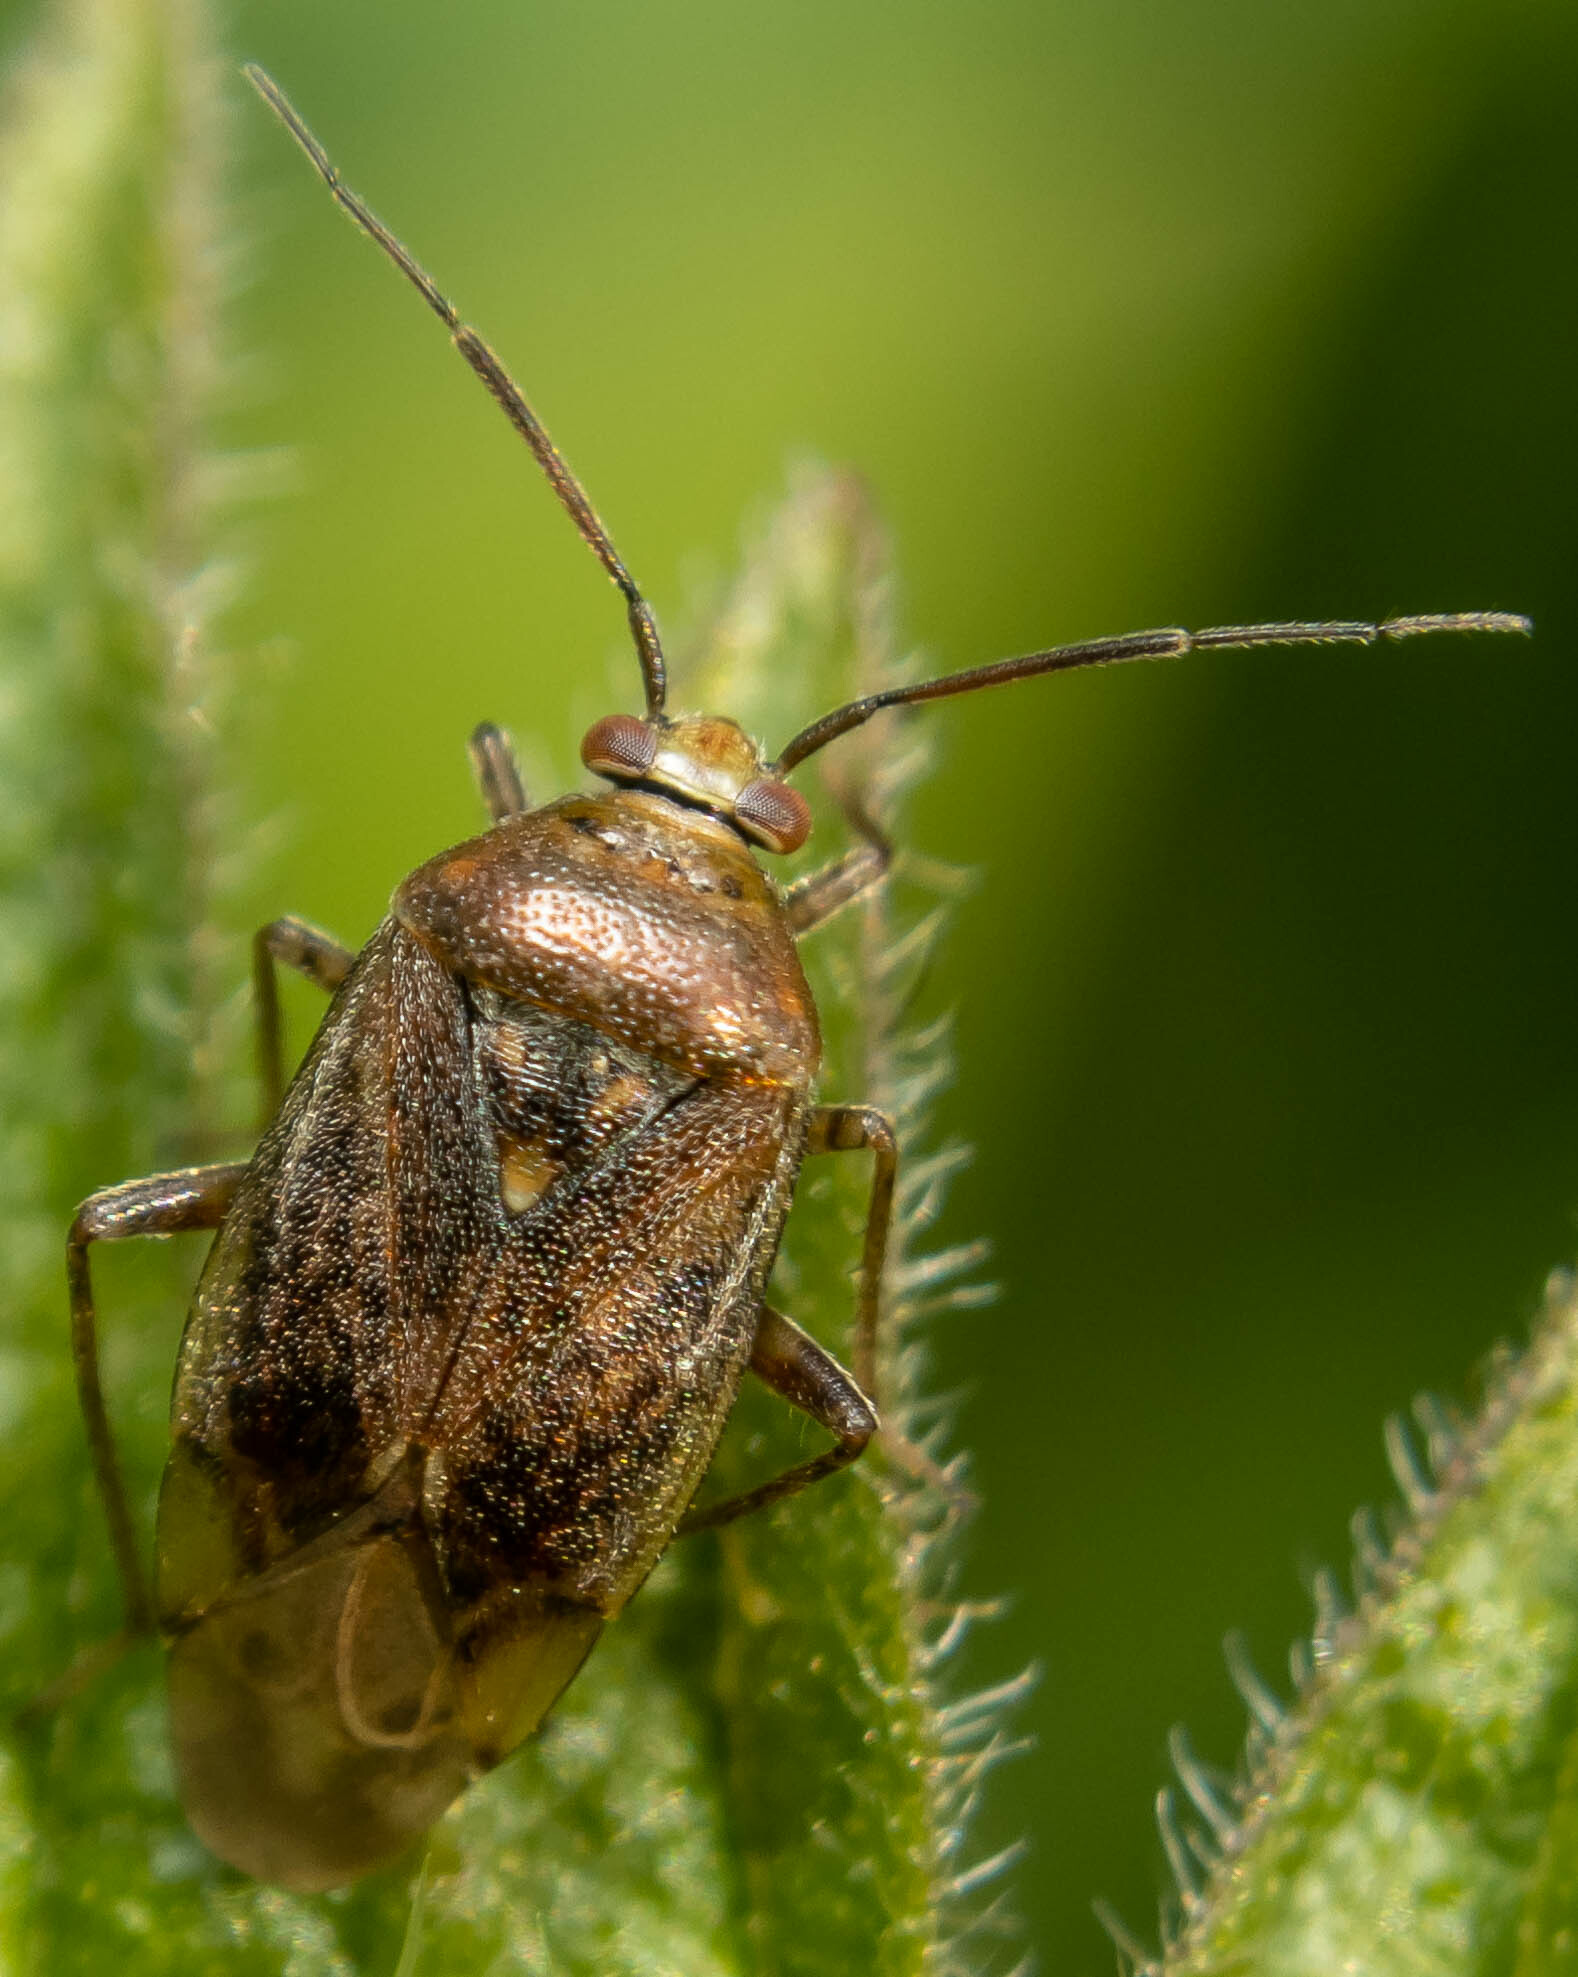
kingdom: Animalia
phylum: Arthropoda
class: Insecta
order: Hemiptera
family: Miridae
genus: Lygus
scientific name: Lygus rugulipennis
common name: European tarnished plant bug
